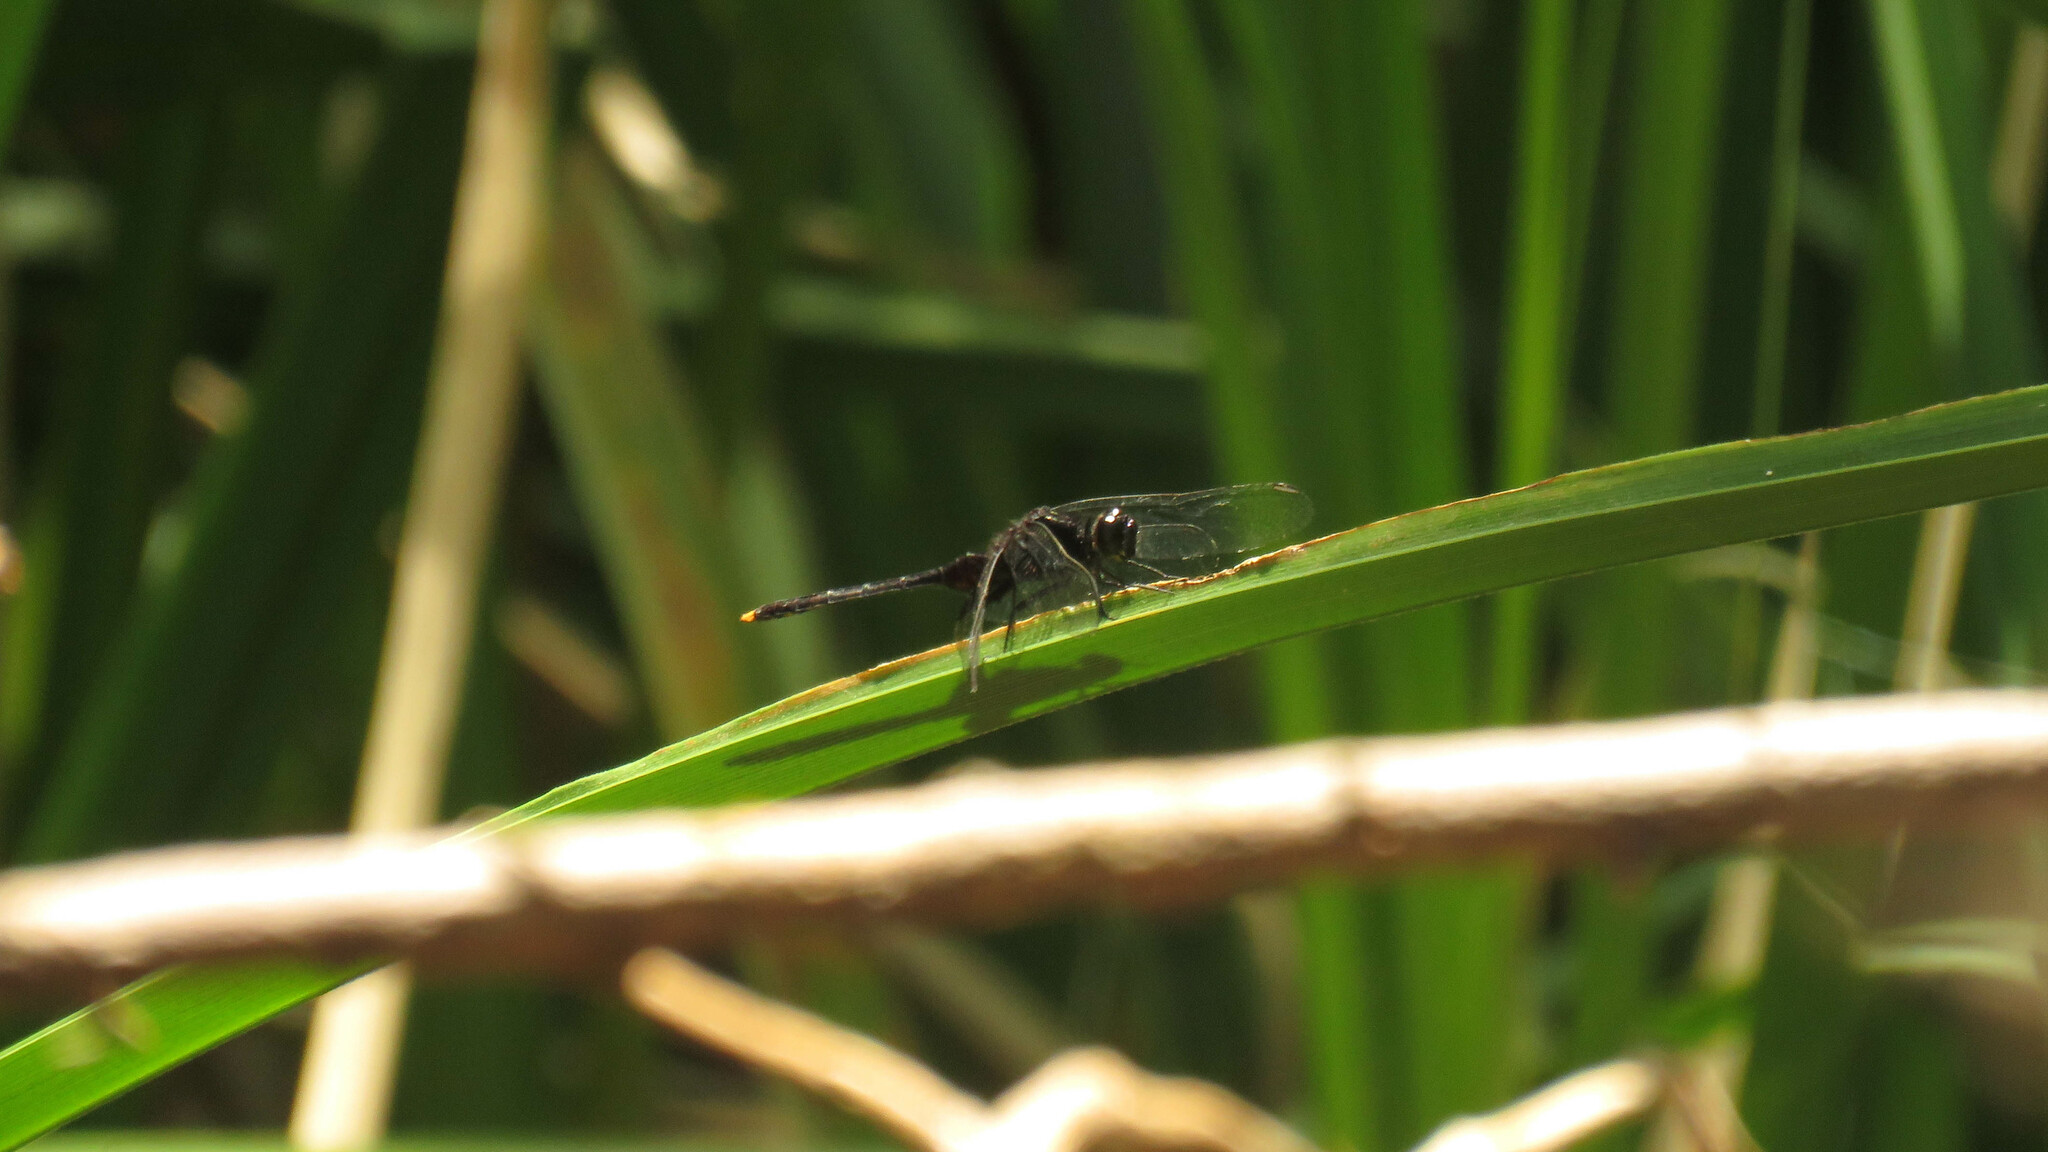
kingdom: Animalia
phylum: Arthropoda
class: Insecta
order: Odonata
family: Libellulidae
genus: Erythemis
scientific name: Erythemis attala
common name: Black pondhawk
